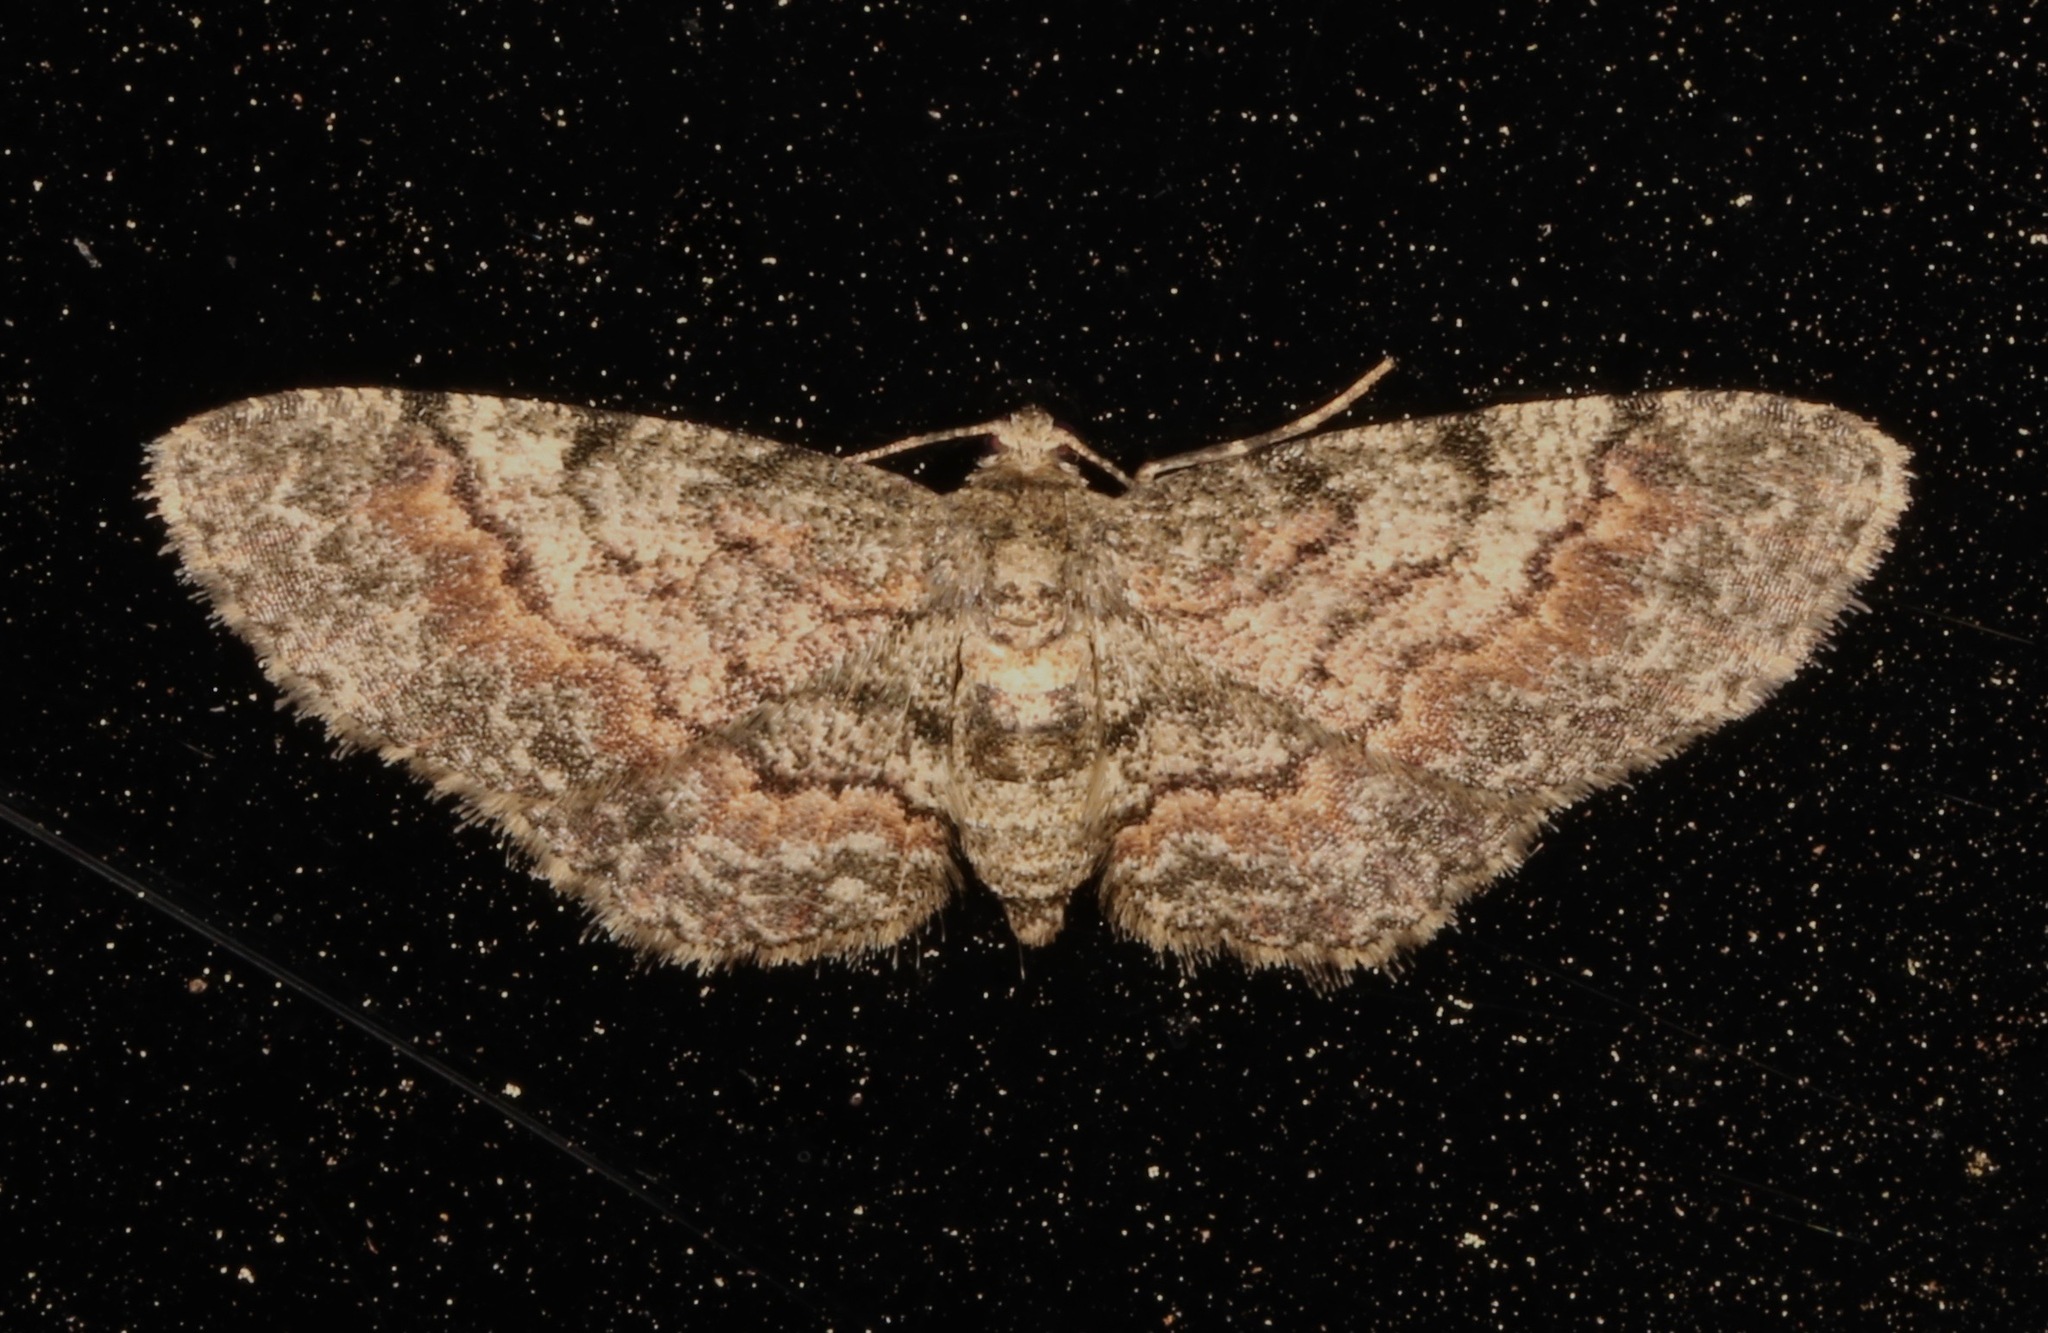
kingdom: Animalia
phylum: Arthropoda
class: Insecta
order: Lepidoptera
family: Geometridae
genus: Glenoides
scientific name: Glenoides texanaria
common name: Texas gray
